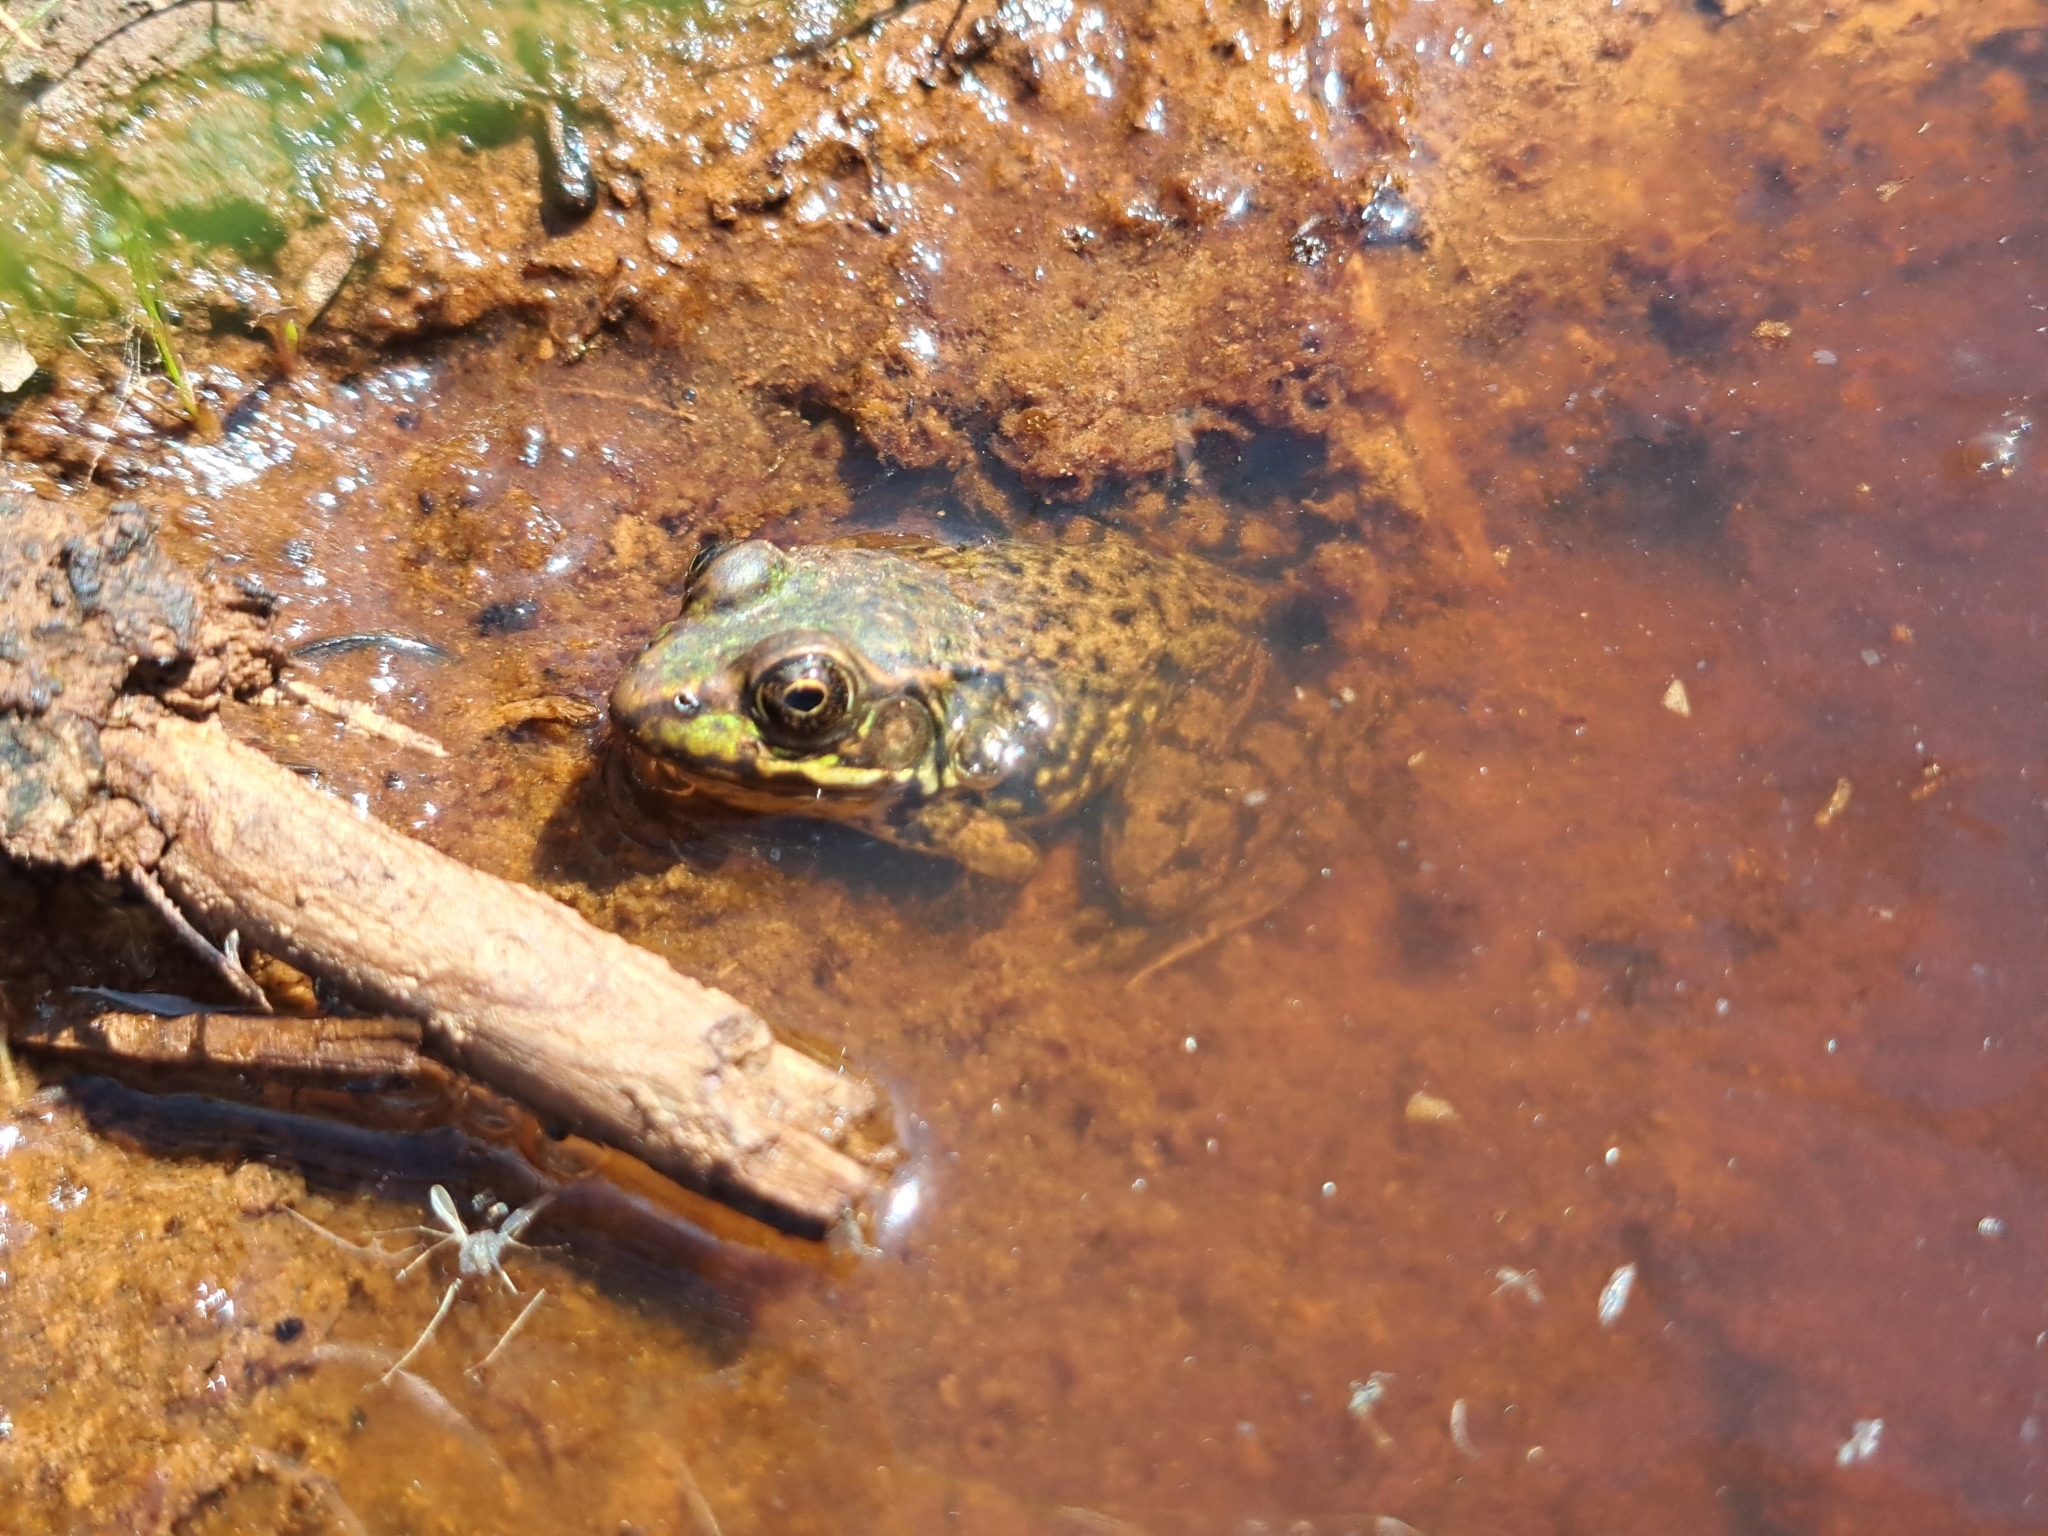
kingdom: Animalia
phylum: Chordata
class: Amphibia
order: Anura
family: Ranidae
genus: Lithobates
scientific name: Lithobates clamitans
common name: Green frog
